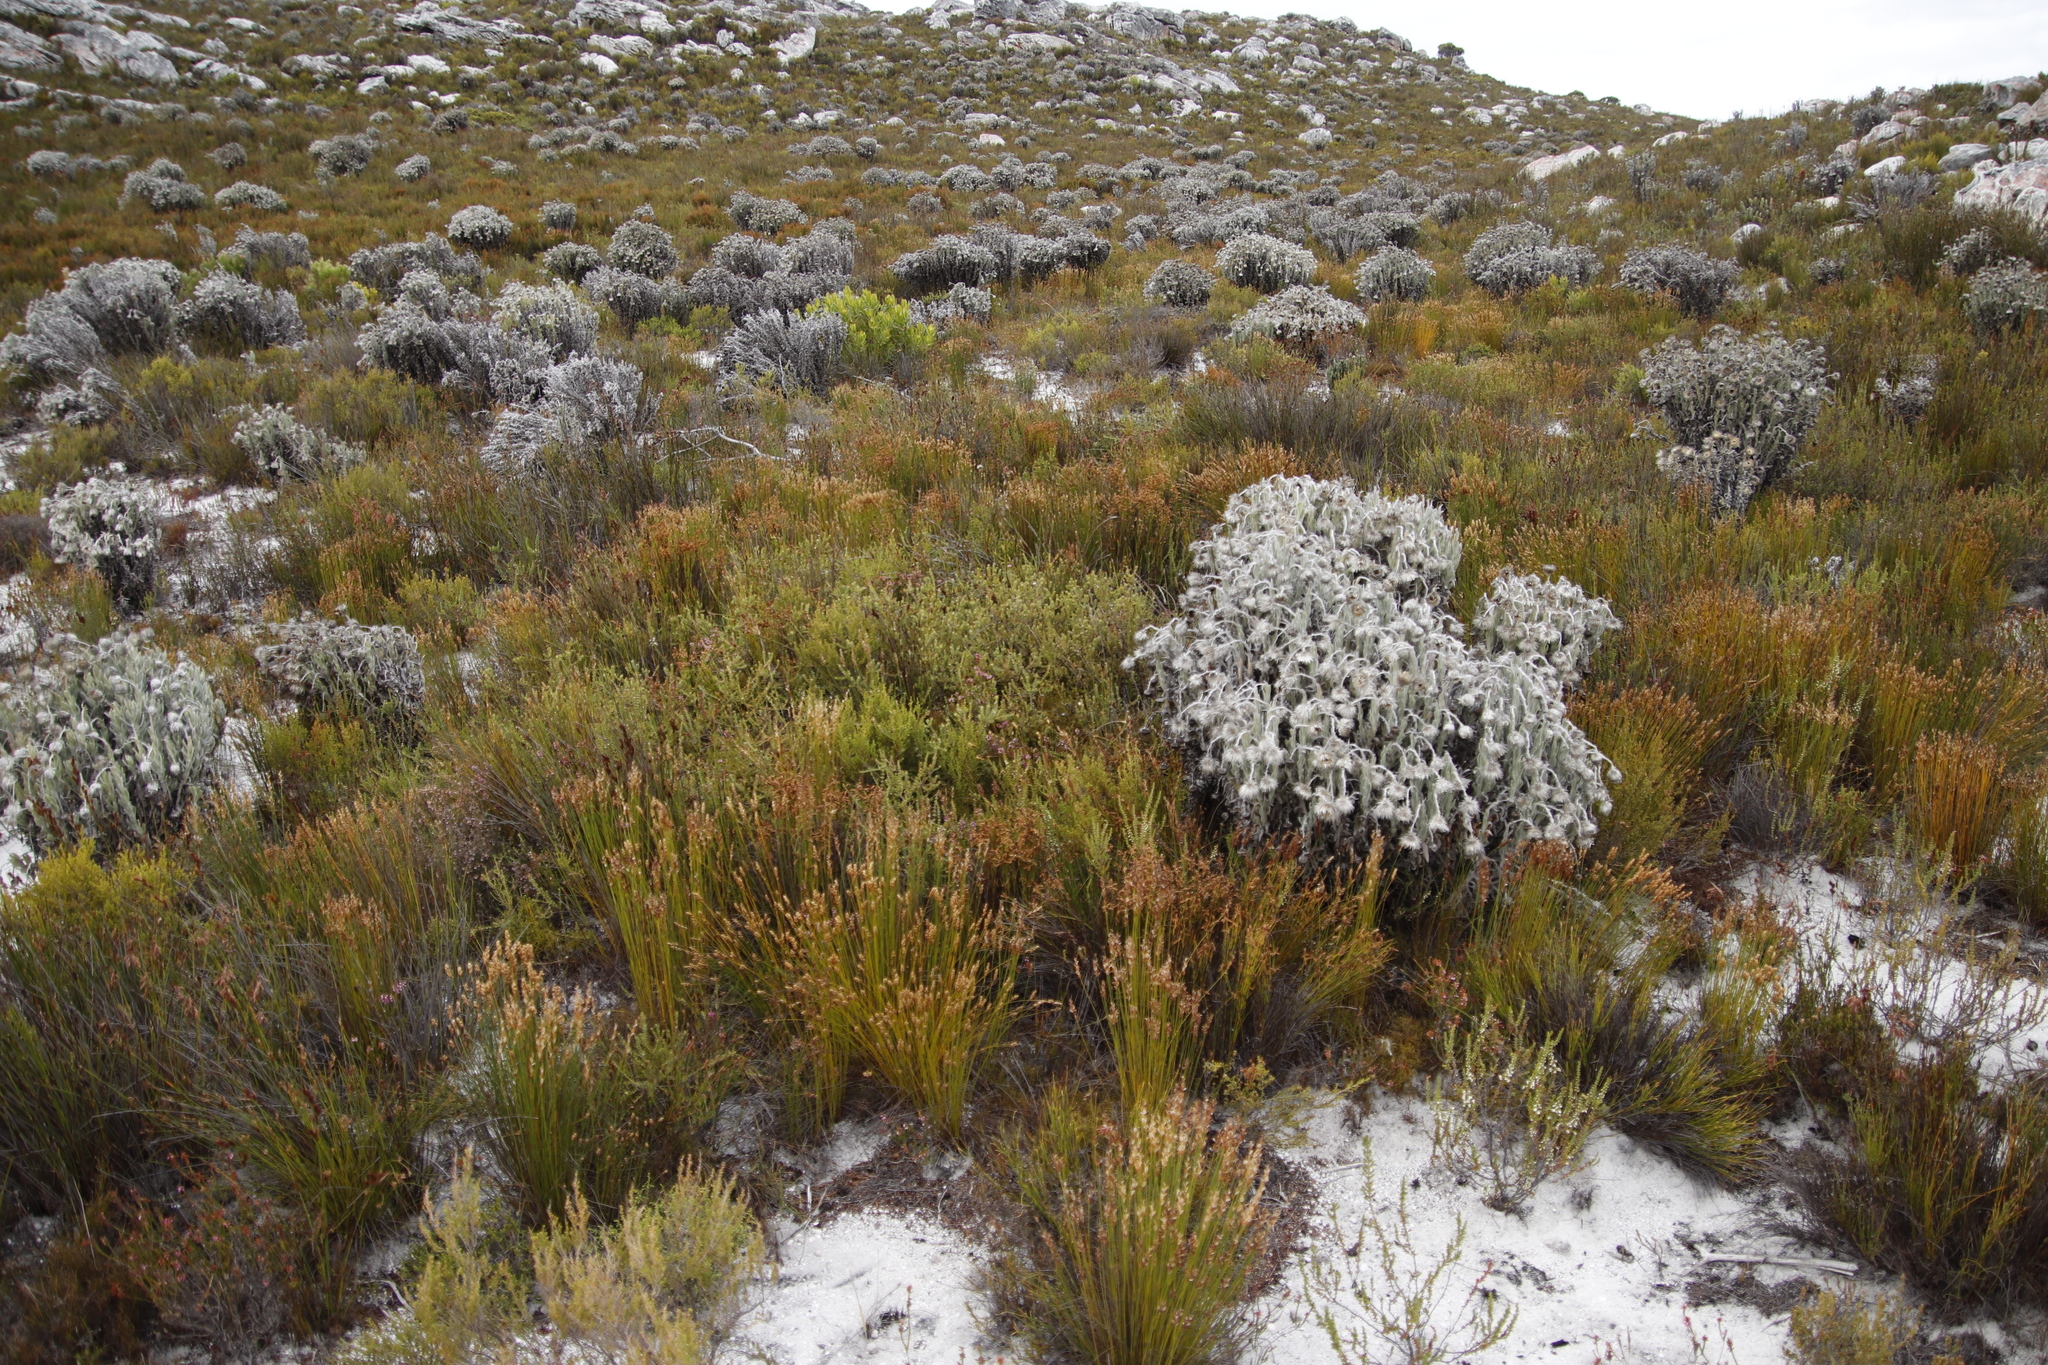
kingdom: Plantae
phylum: Tracheophyta
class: Magnoliopsida
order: Asterales
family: Asteraceae
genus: Syncarpha
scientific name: Syncarpha vestita
